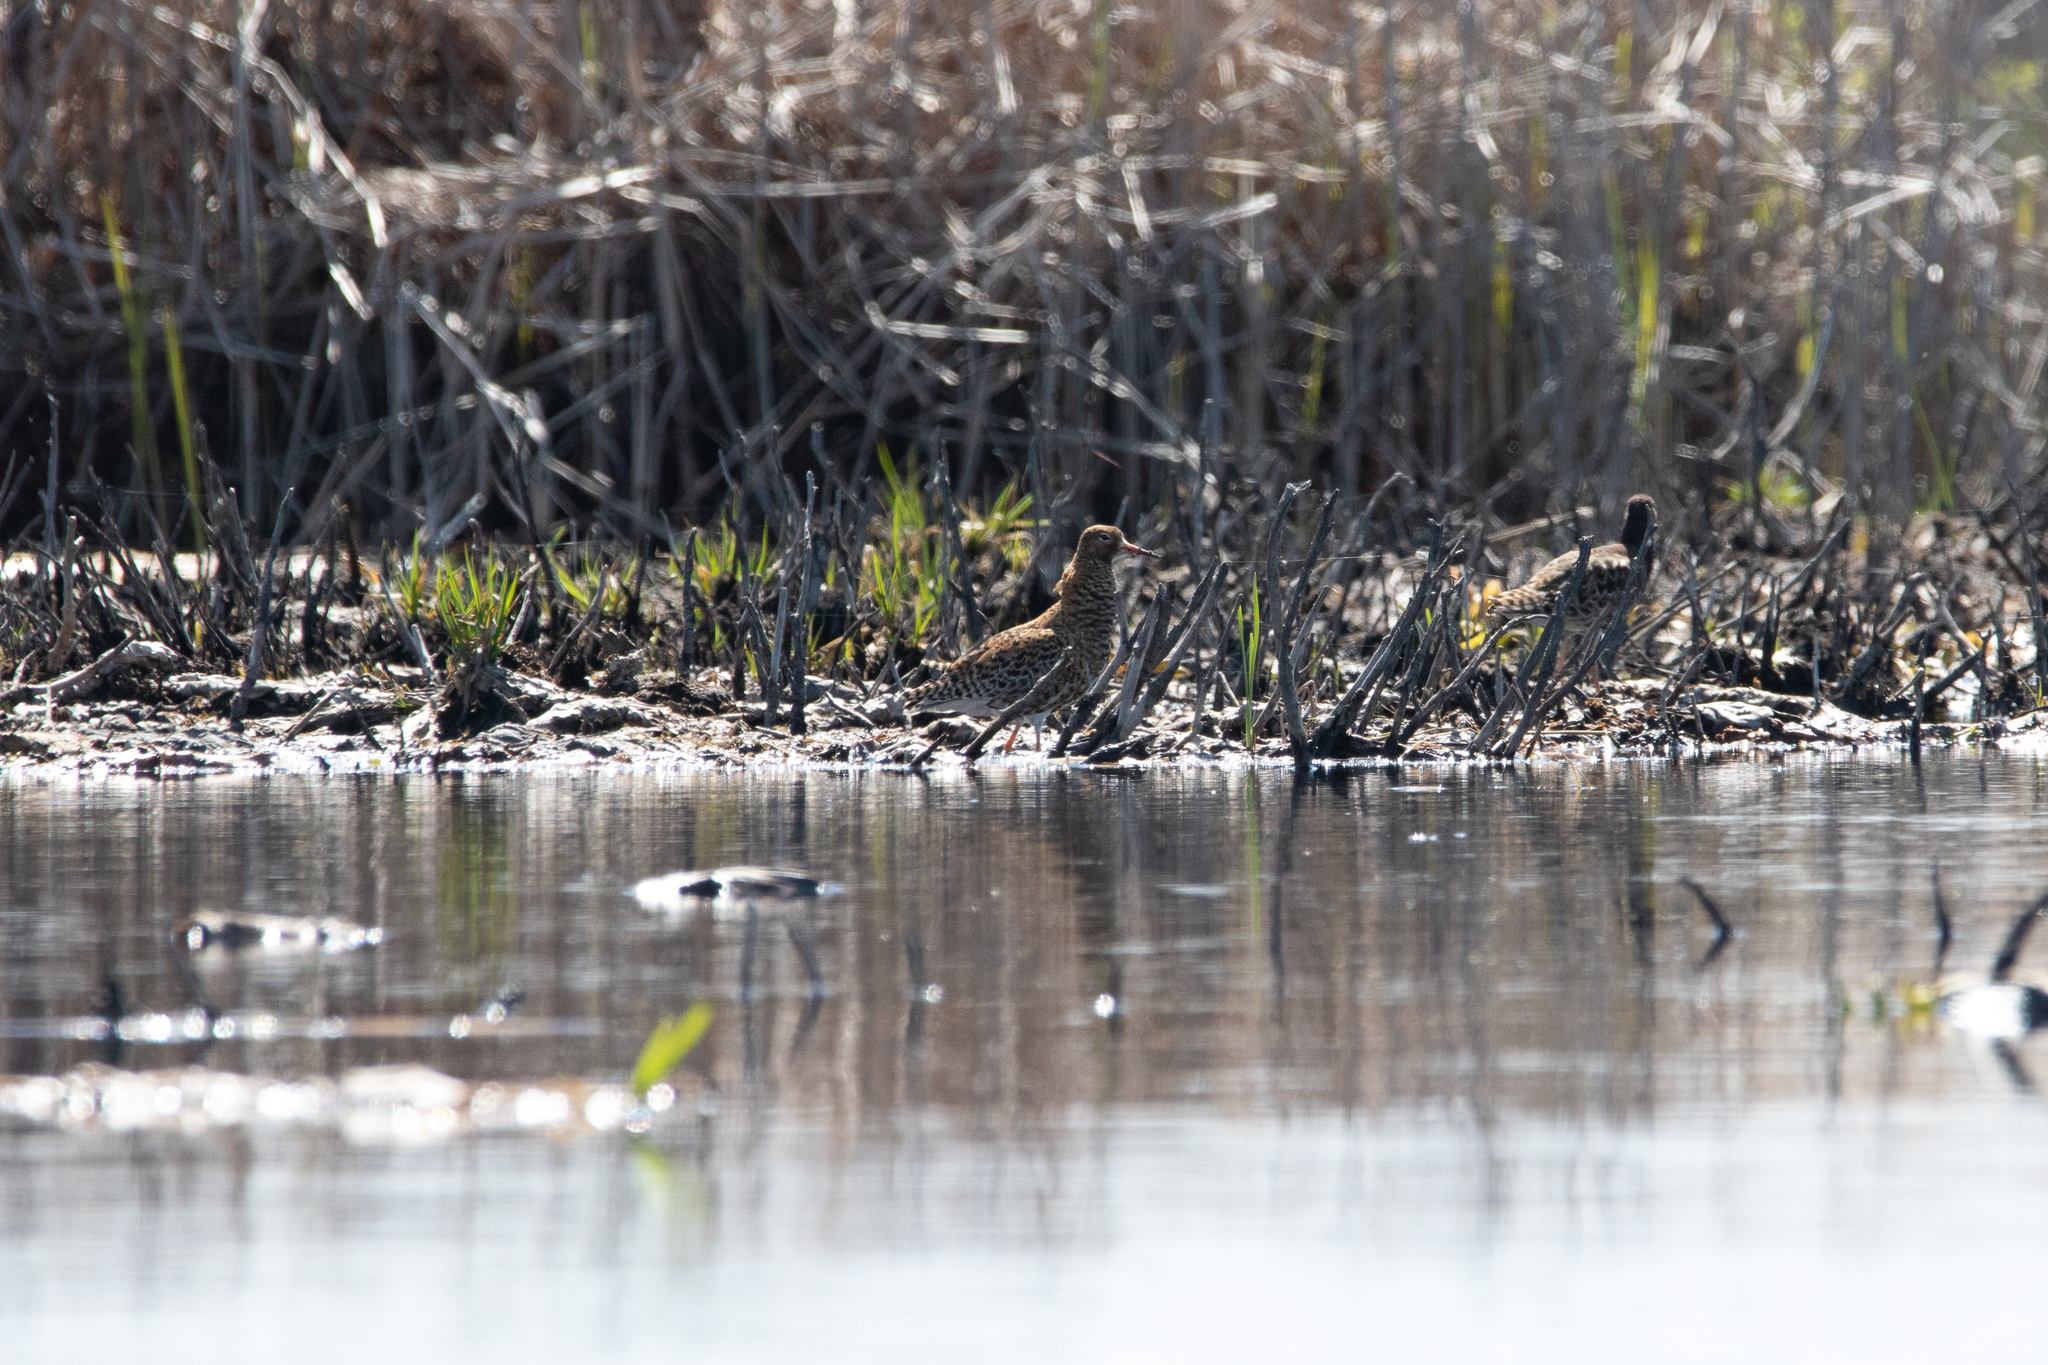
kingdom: Animalia
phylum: Chordata
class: Aves
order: Charadriiformes
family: Scolopacidae
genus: Calidris
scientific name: Calidris pugnax
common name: Ruff
